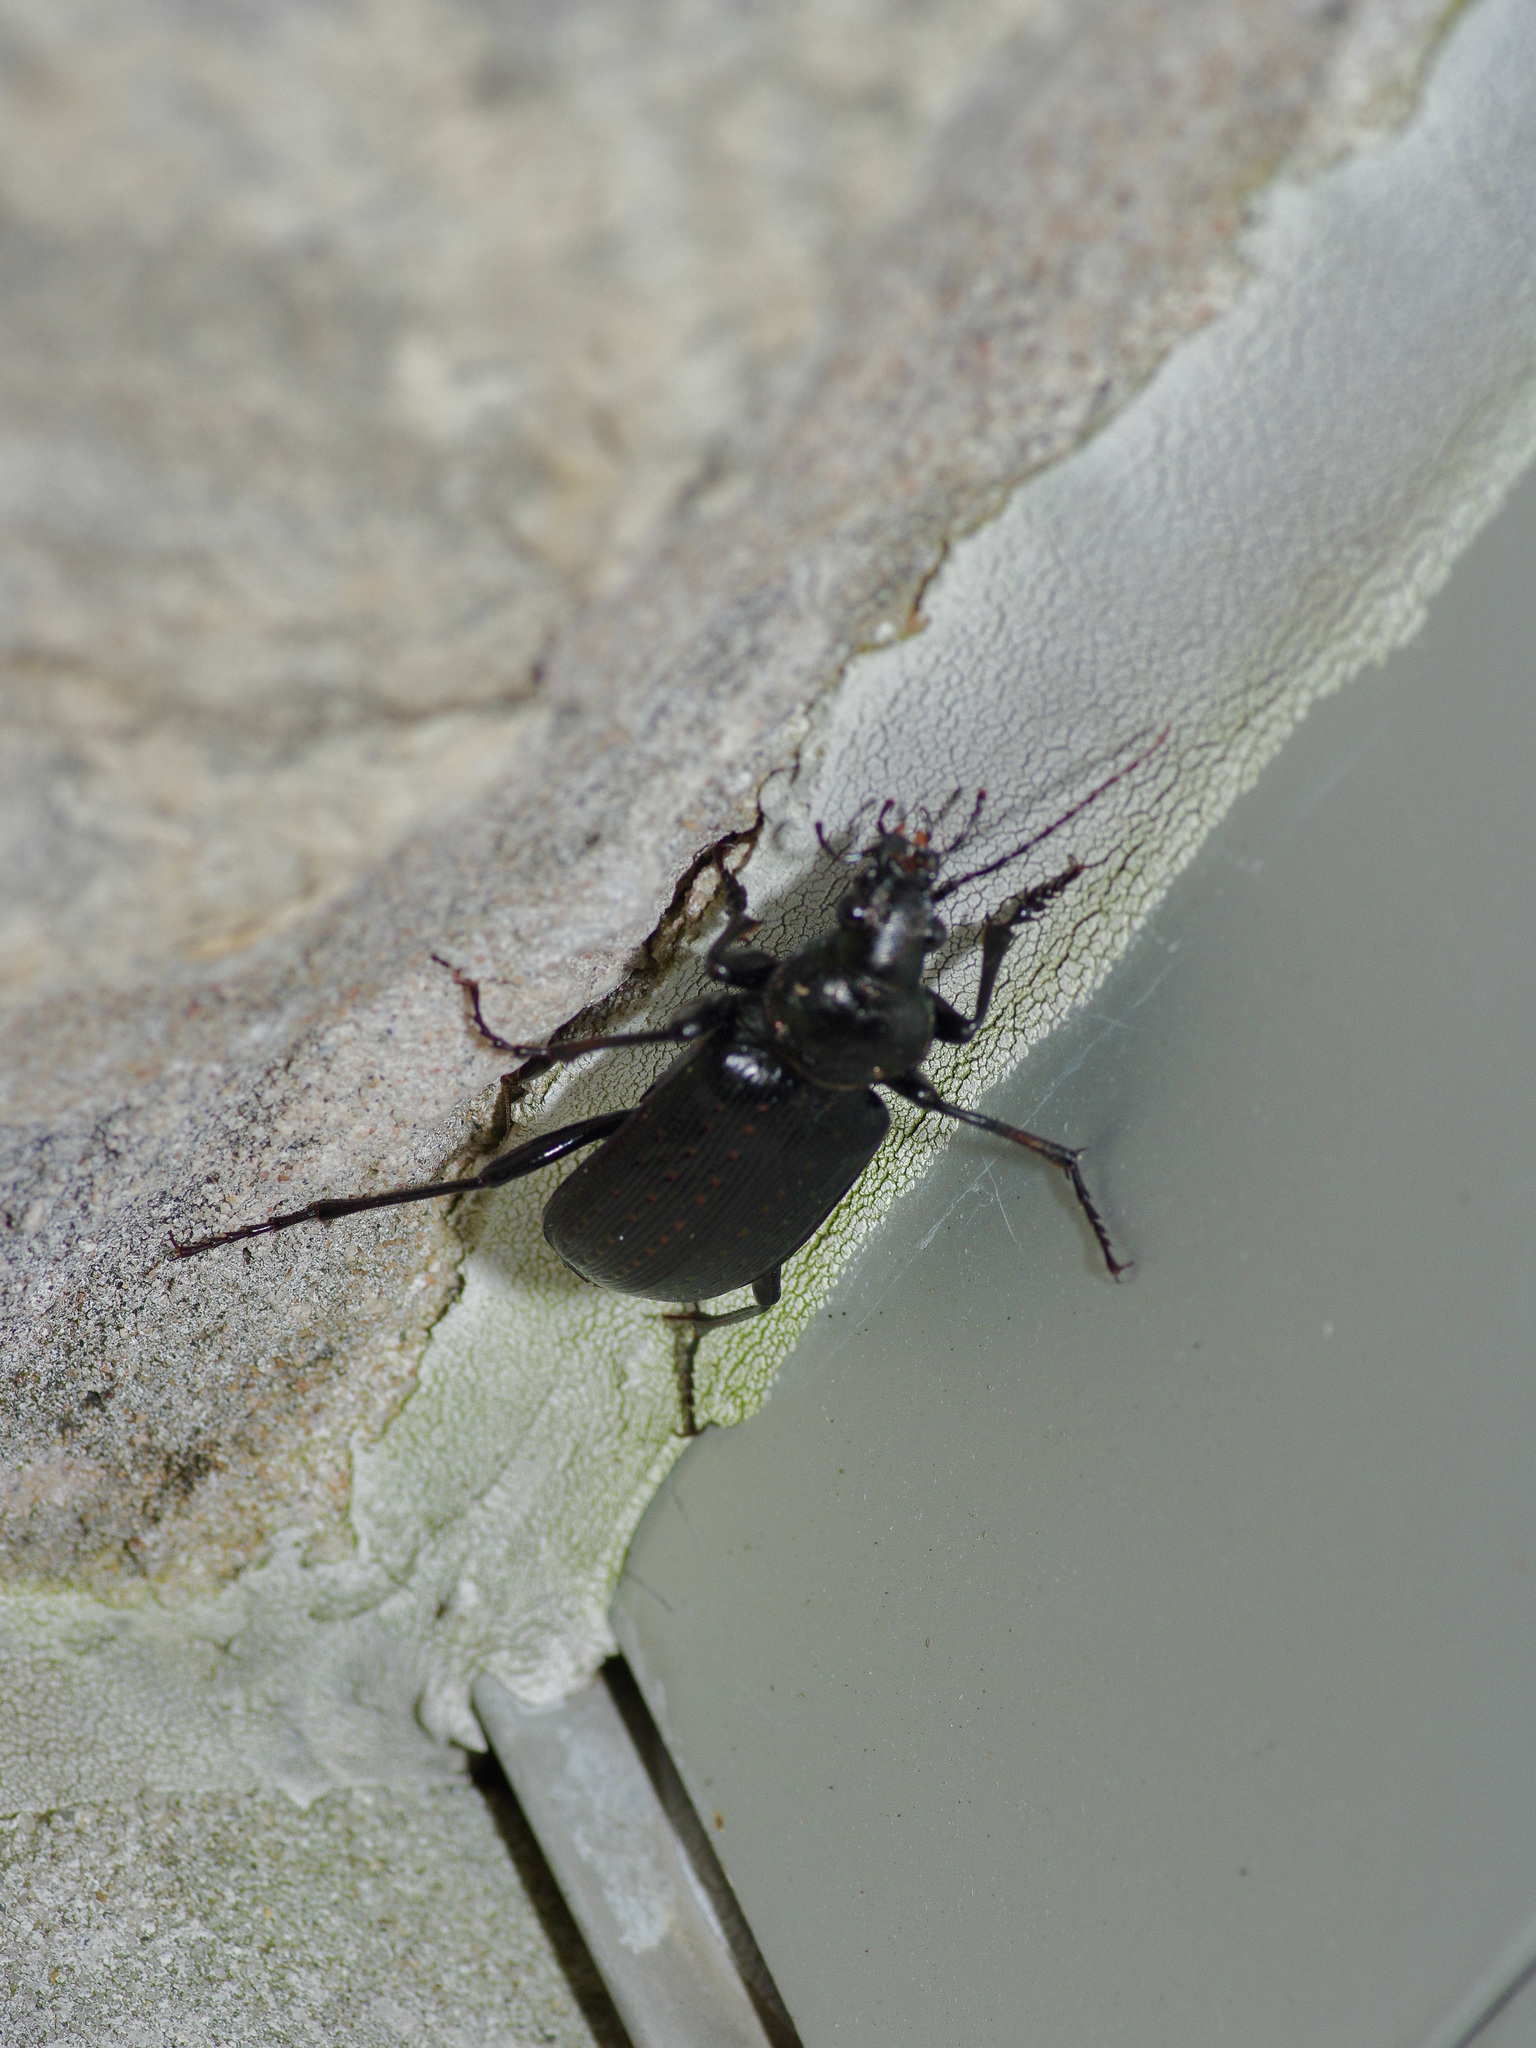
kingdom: Animalia
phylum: Arthropoda
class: Insecta
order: Coleoptera
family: Carabidae
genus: Calosoma
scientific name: Calosoma sayi
